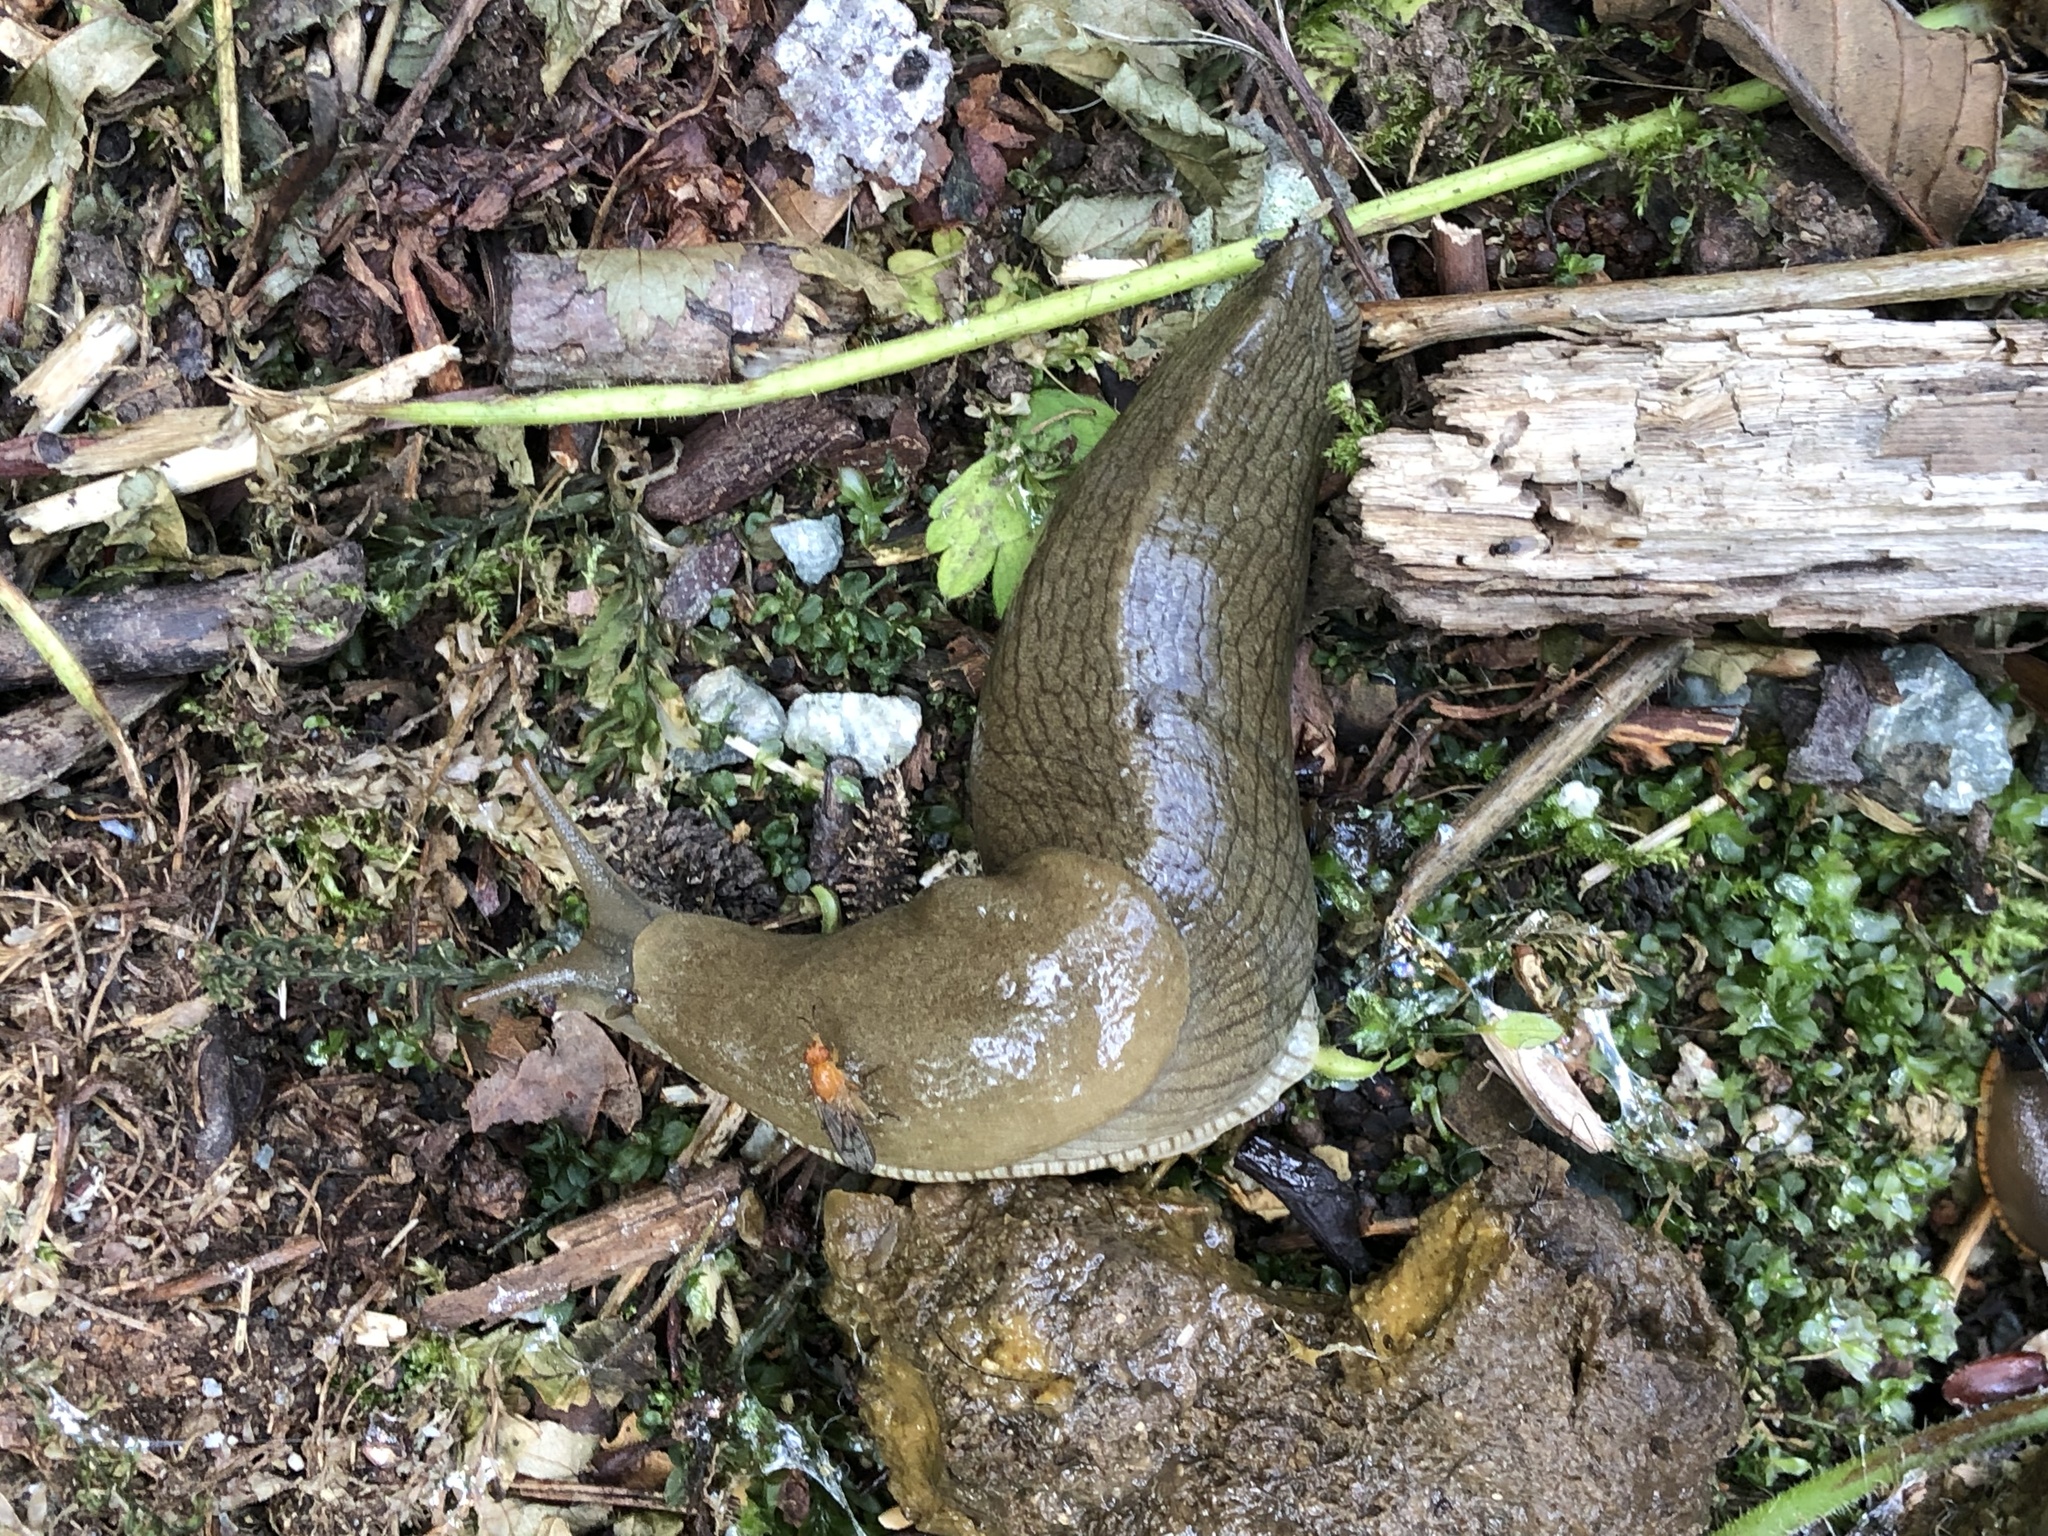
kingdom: Animalia
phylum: Mollusca
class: Gastropoda
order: Stylommatophora
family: Ariolimacidae
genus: Ariolimax
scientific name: Ariolimax columbianus
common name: Pacific banana slug
